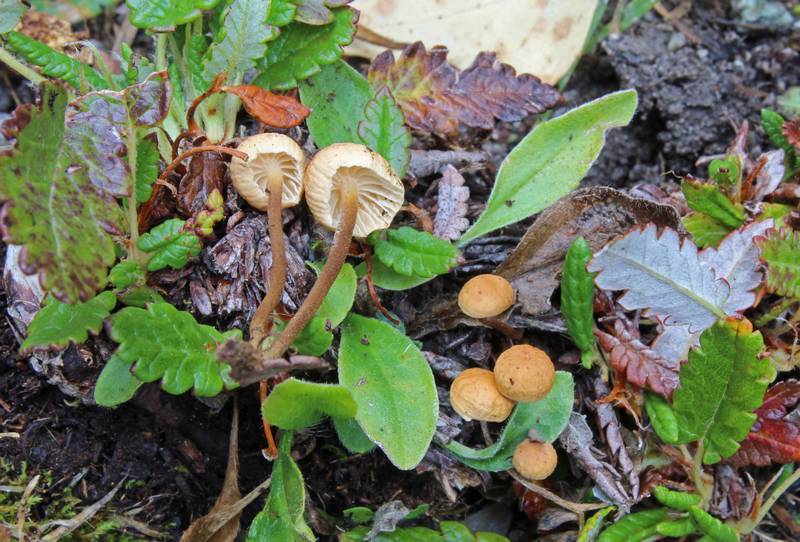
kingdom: Fungi
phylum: Basidiomycota
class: Agaricomycetes
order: Agaricales
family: Physalacriaceae
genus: Rhizomarasmius
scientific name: Rhizomarasmius epidryas
